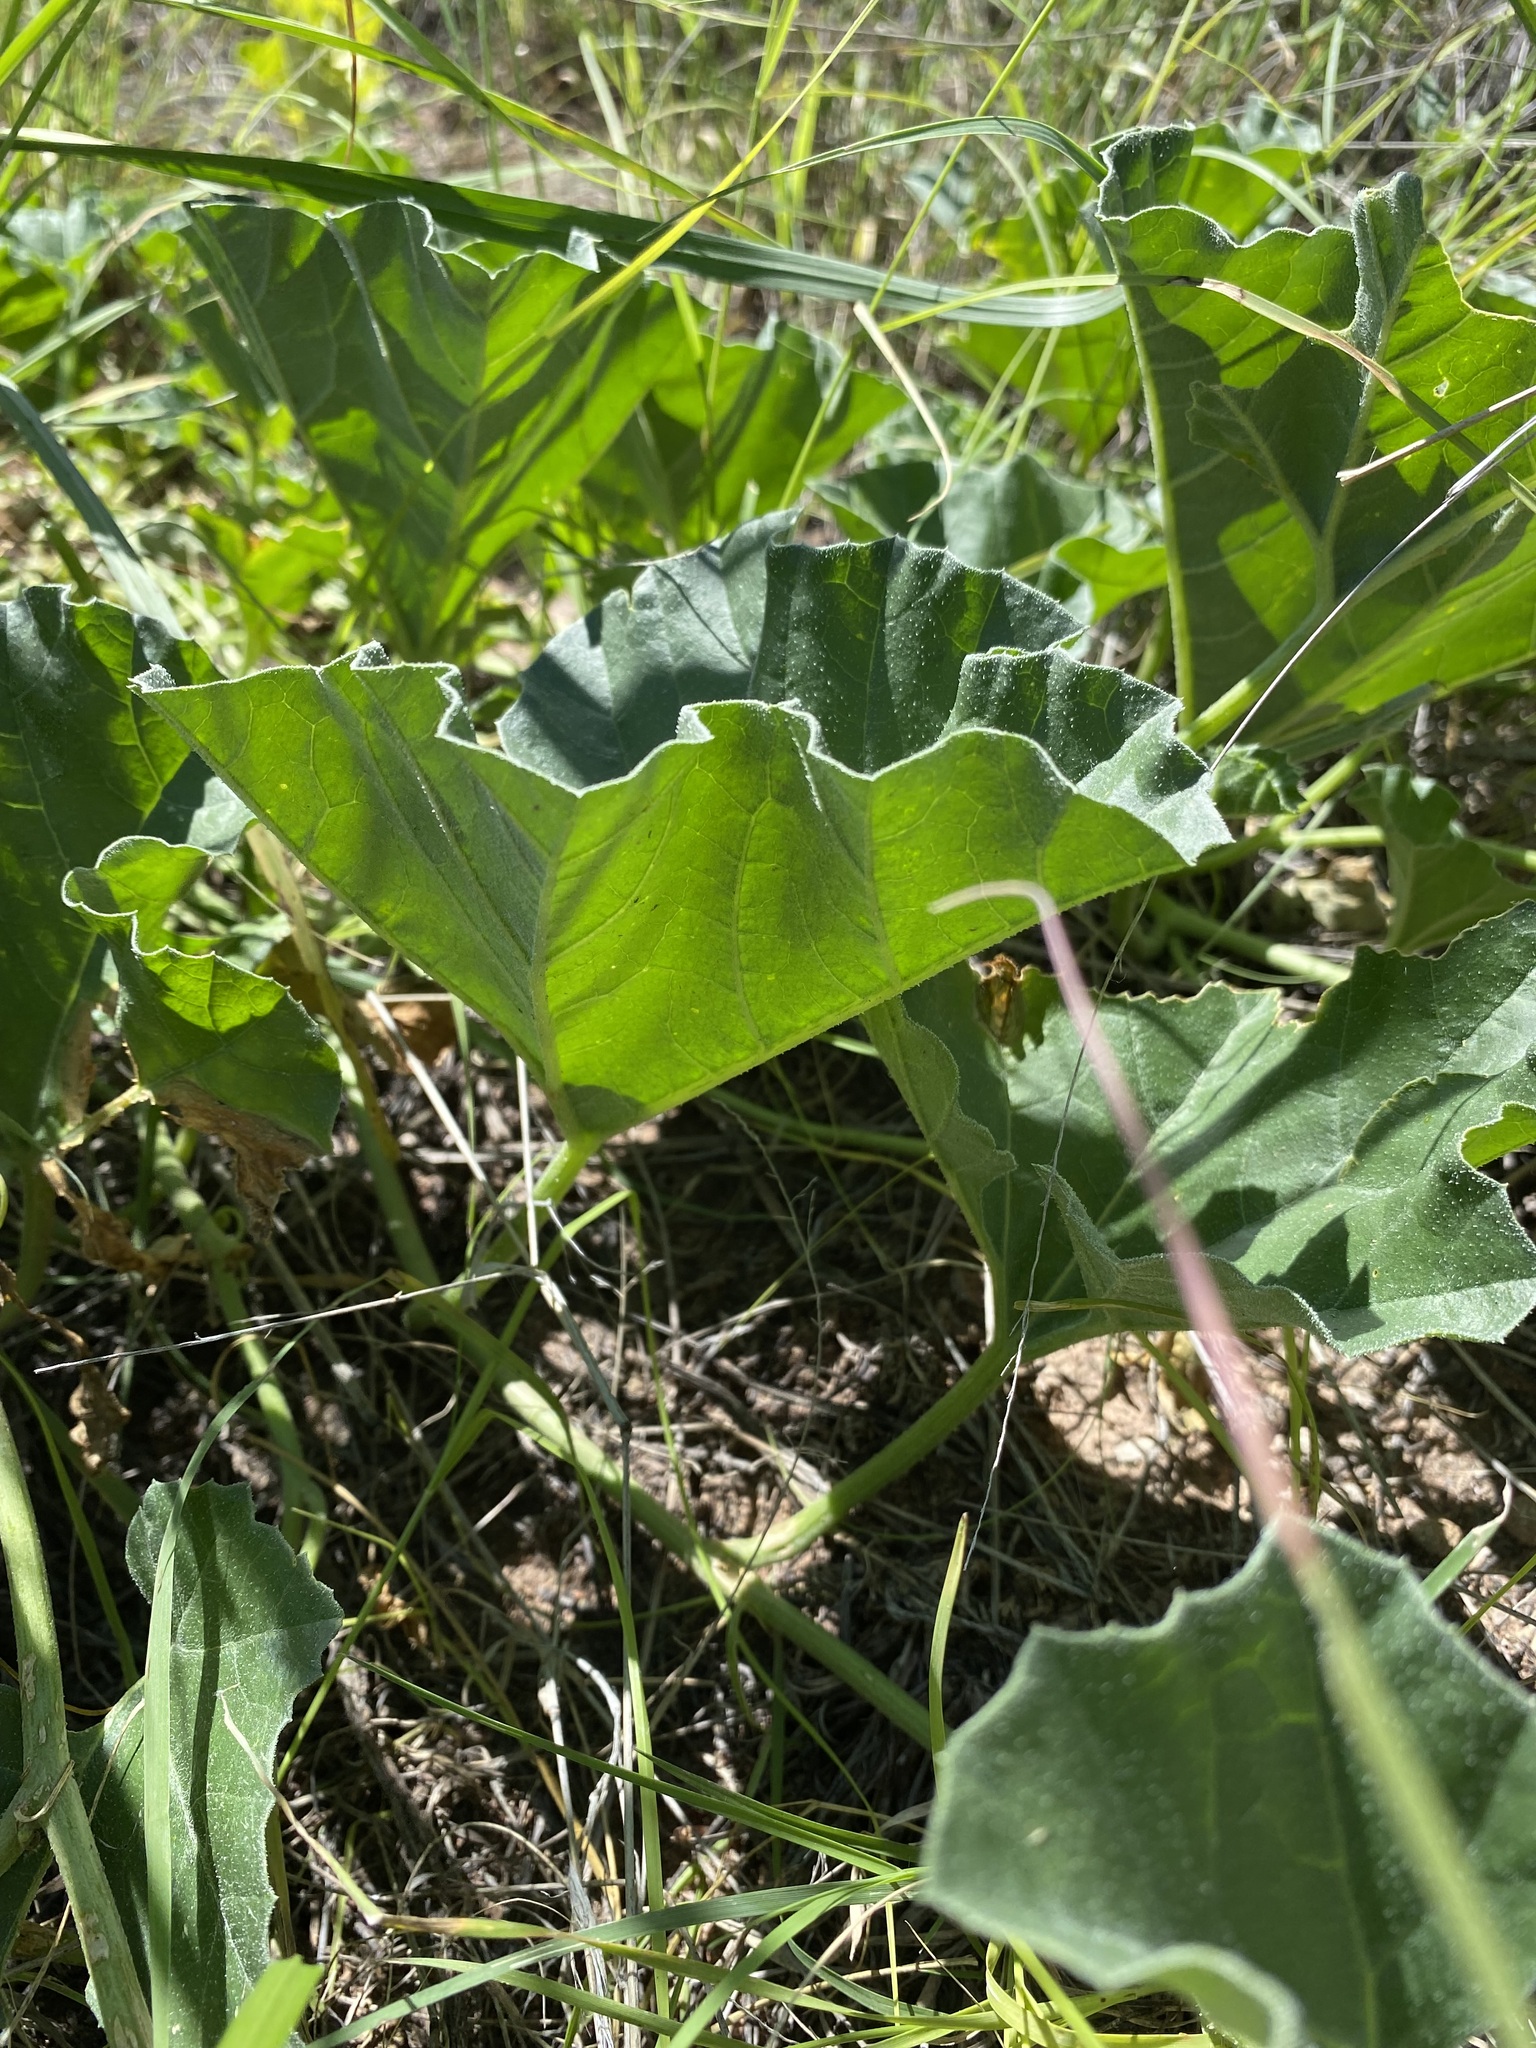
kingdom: Plantae
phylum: Tracheophyta
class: Magnoliopsida
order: Cucurbitales
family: Cucurbitaceae
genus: Apodanthera
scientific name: Apodanthera undulata
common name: Melon-loco
